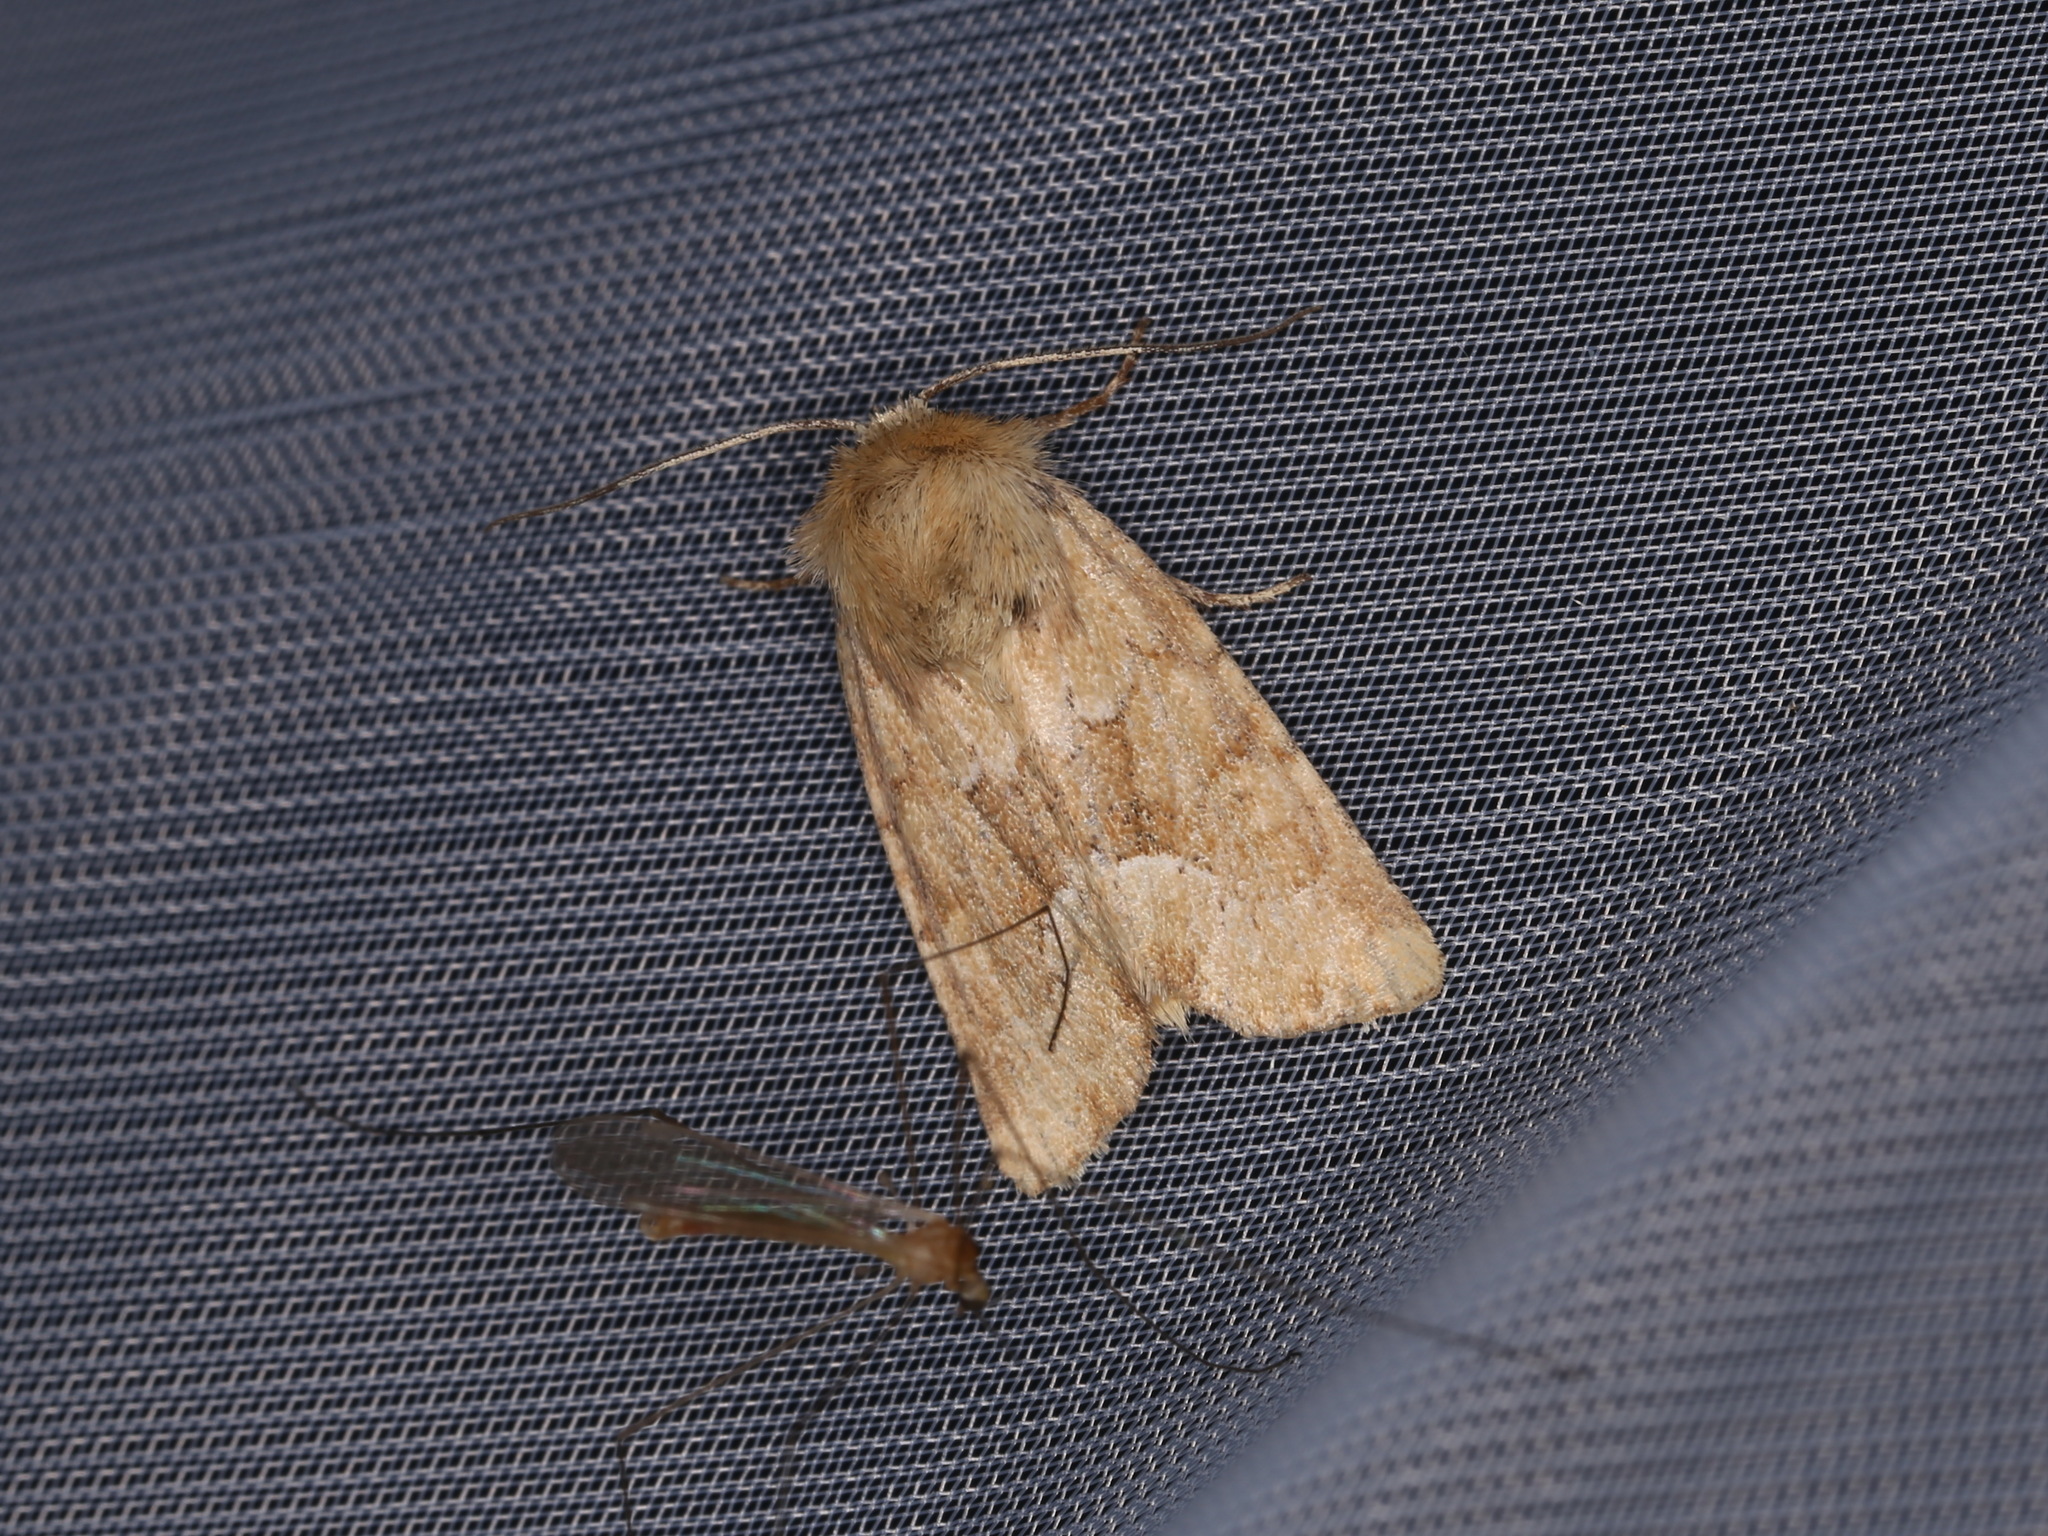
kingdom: Animalia
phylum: Arthropoda
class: Insecta
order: Lepidoptera
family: Noctuidae
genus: Oligia
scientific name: Oligia fasciuncula
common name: Middle-barred minor
